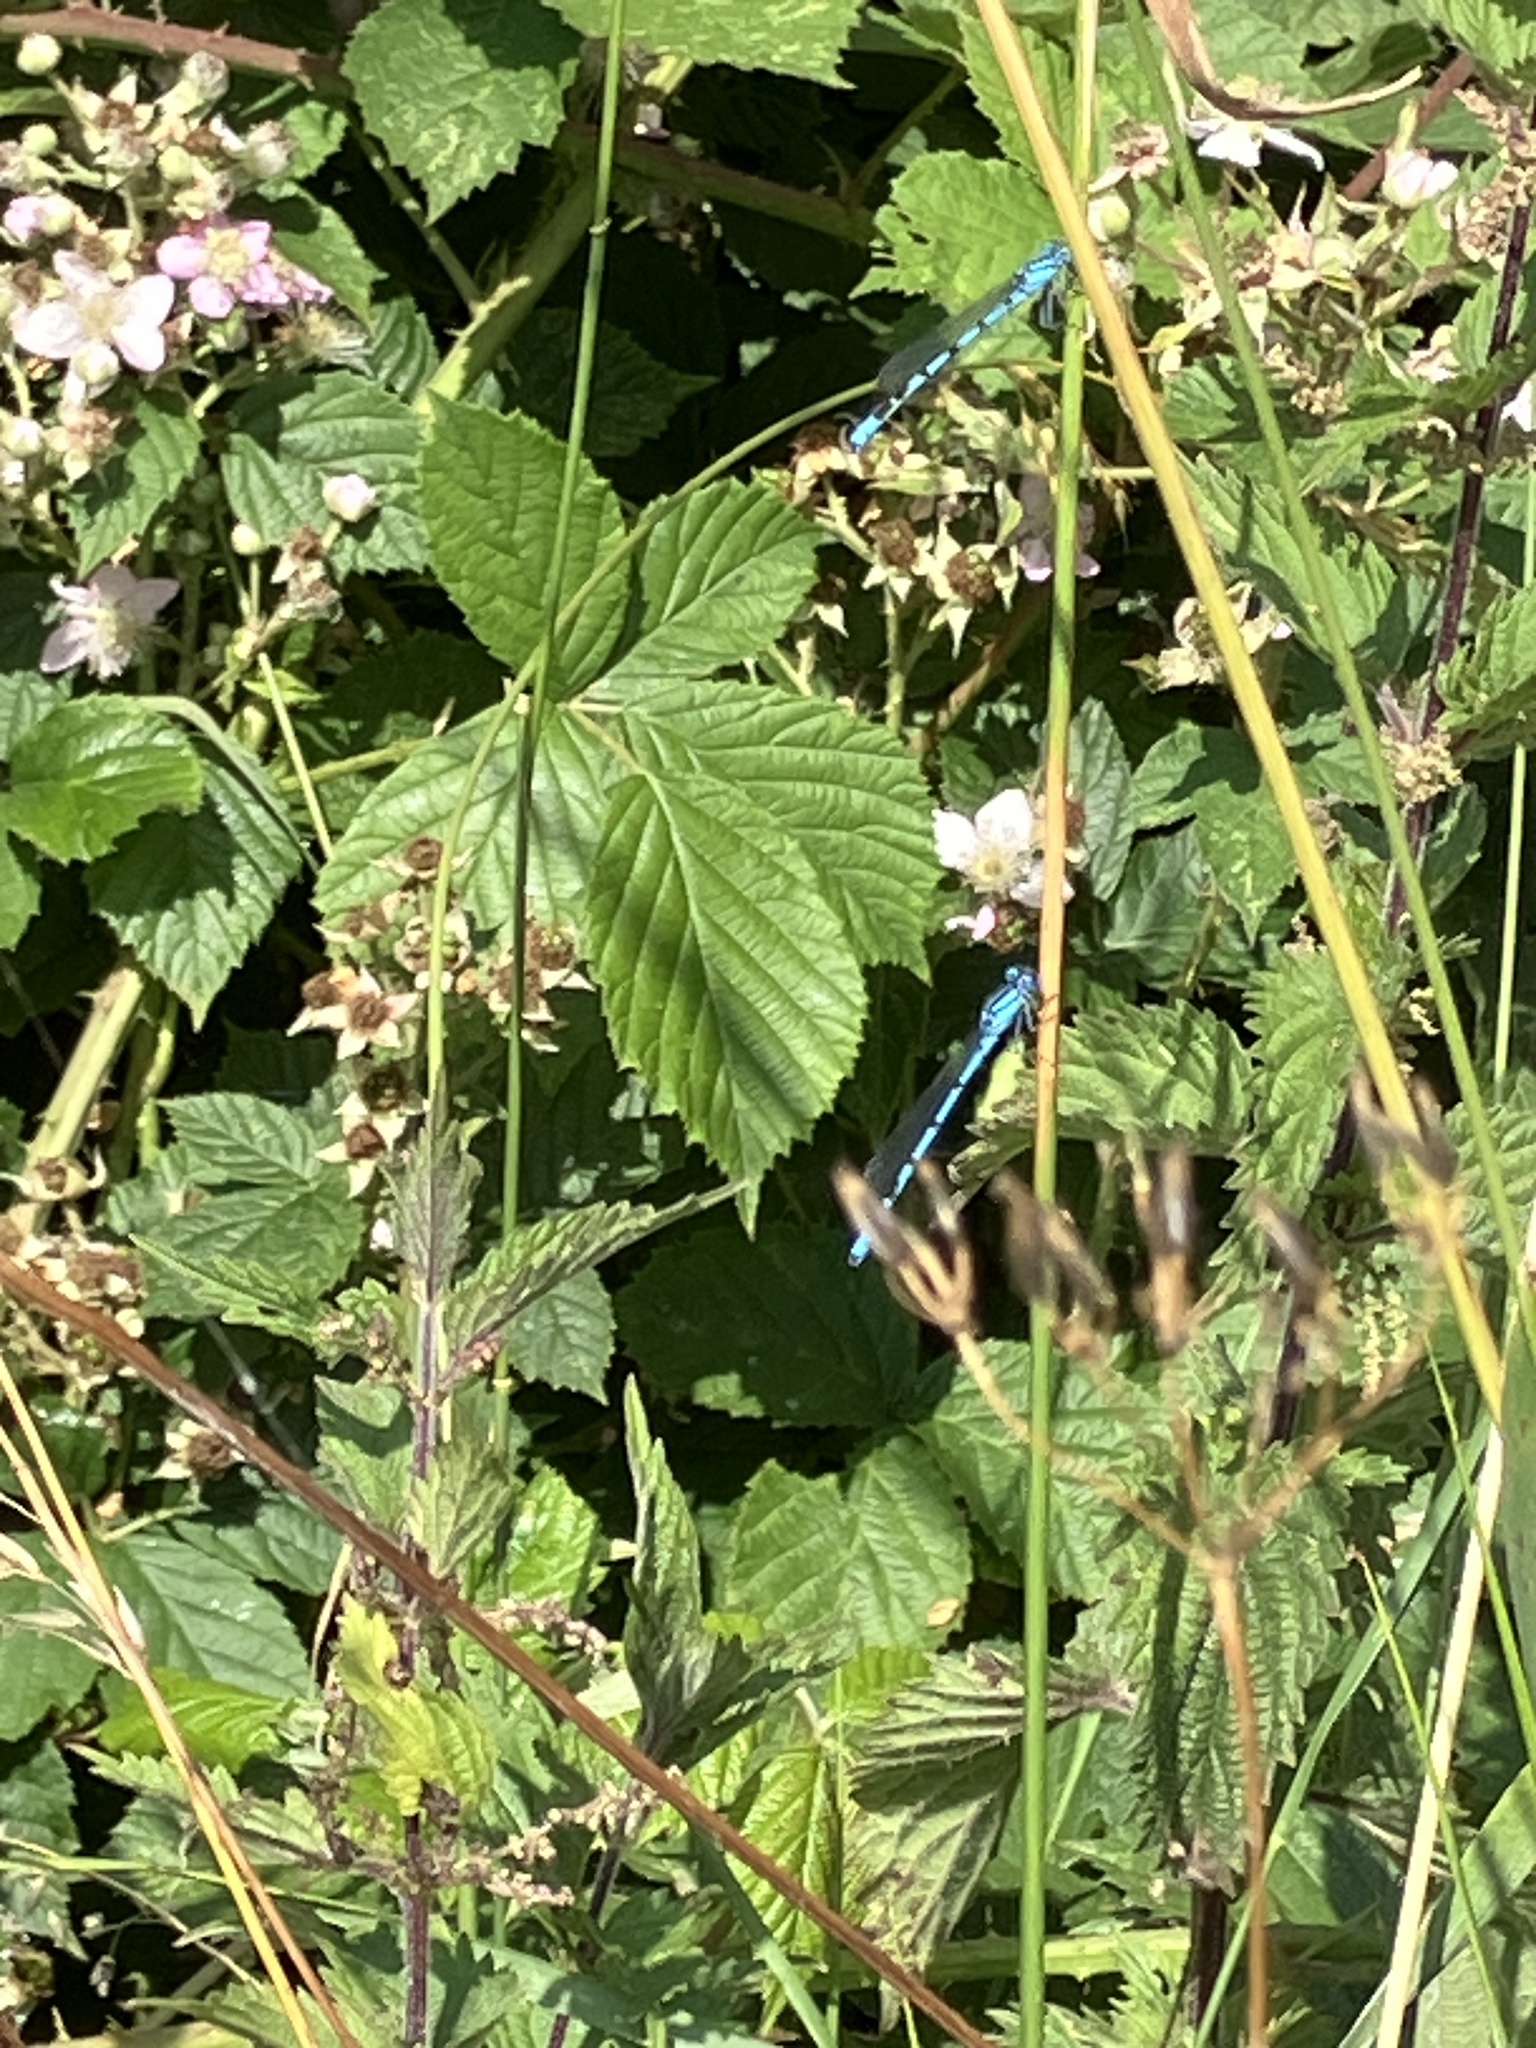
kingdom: Animalia
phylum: Arthropoda
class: Insecta
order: Odonata
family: Coenagrionidae
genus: Enallagma
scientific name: Enallagma cyathigerum
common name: Common blue damselfly
